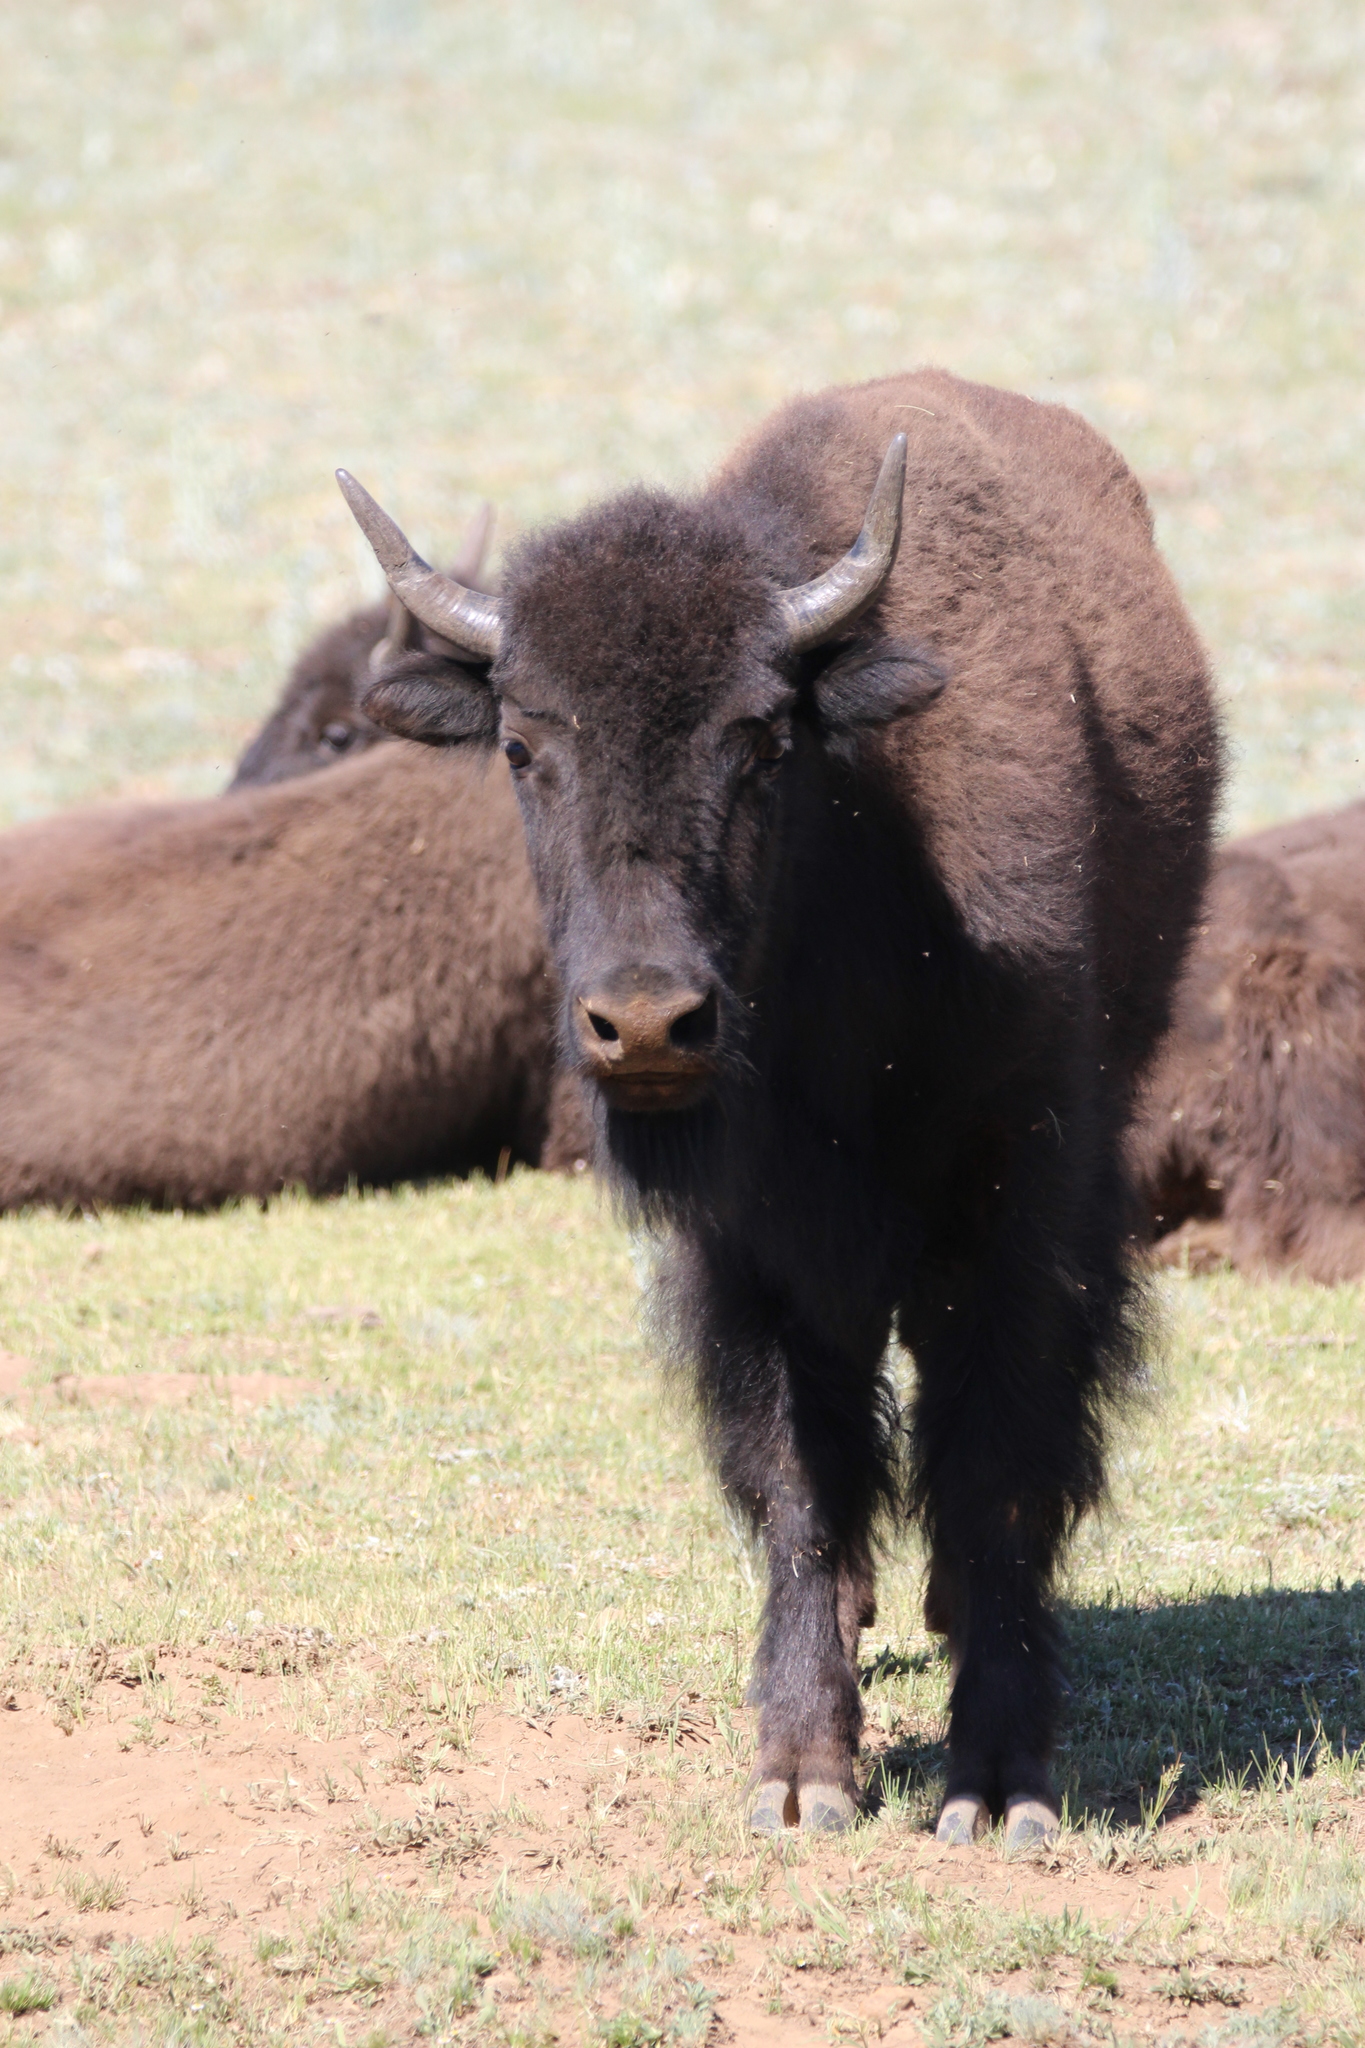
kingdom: Animalia
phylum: Chordata
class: Mammalia
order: Artiodactyla
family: Bovidae
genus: Bison
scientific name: Bison bison
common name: American bison
